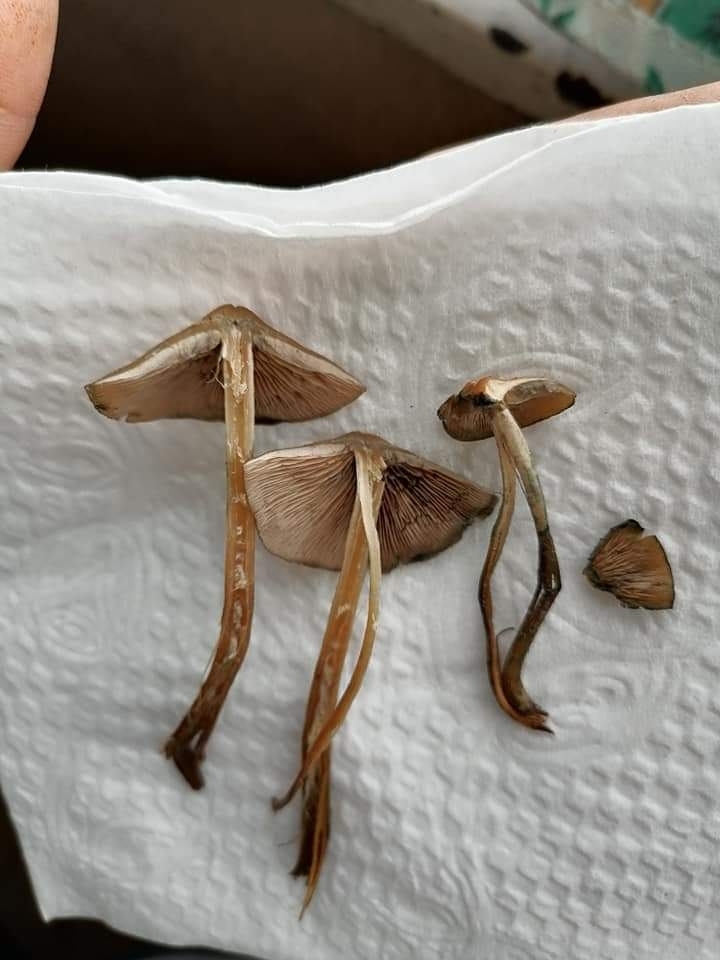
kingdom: Fungi
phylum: Basidiomycota
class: Agaricomycetes
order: Agaricales
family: Hymenogastraceae
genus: Psilocybe
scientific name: Psilocybe caerulescens
